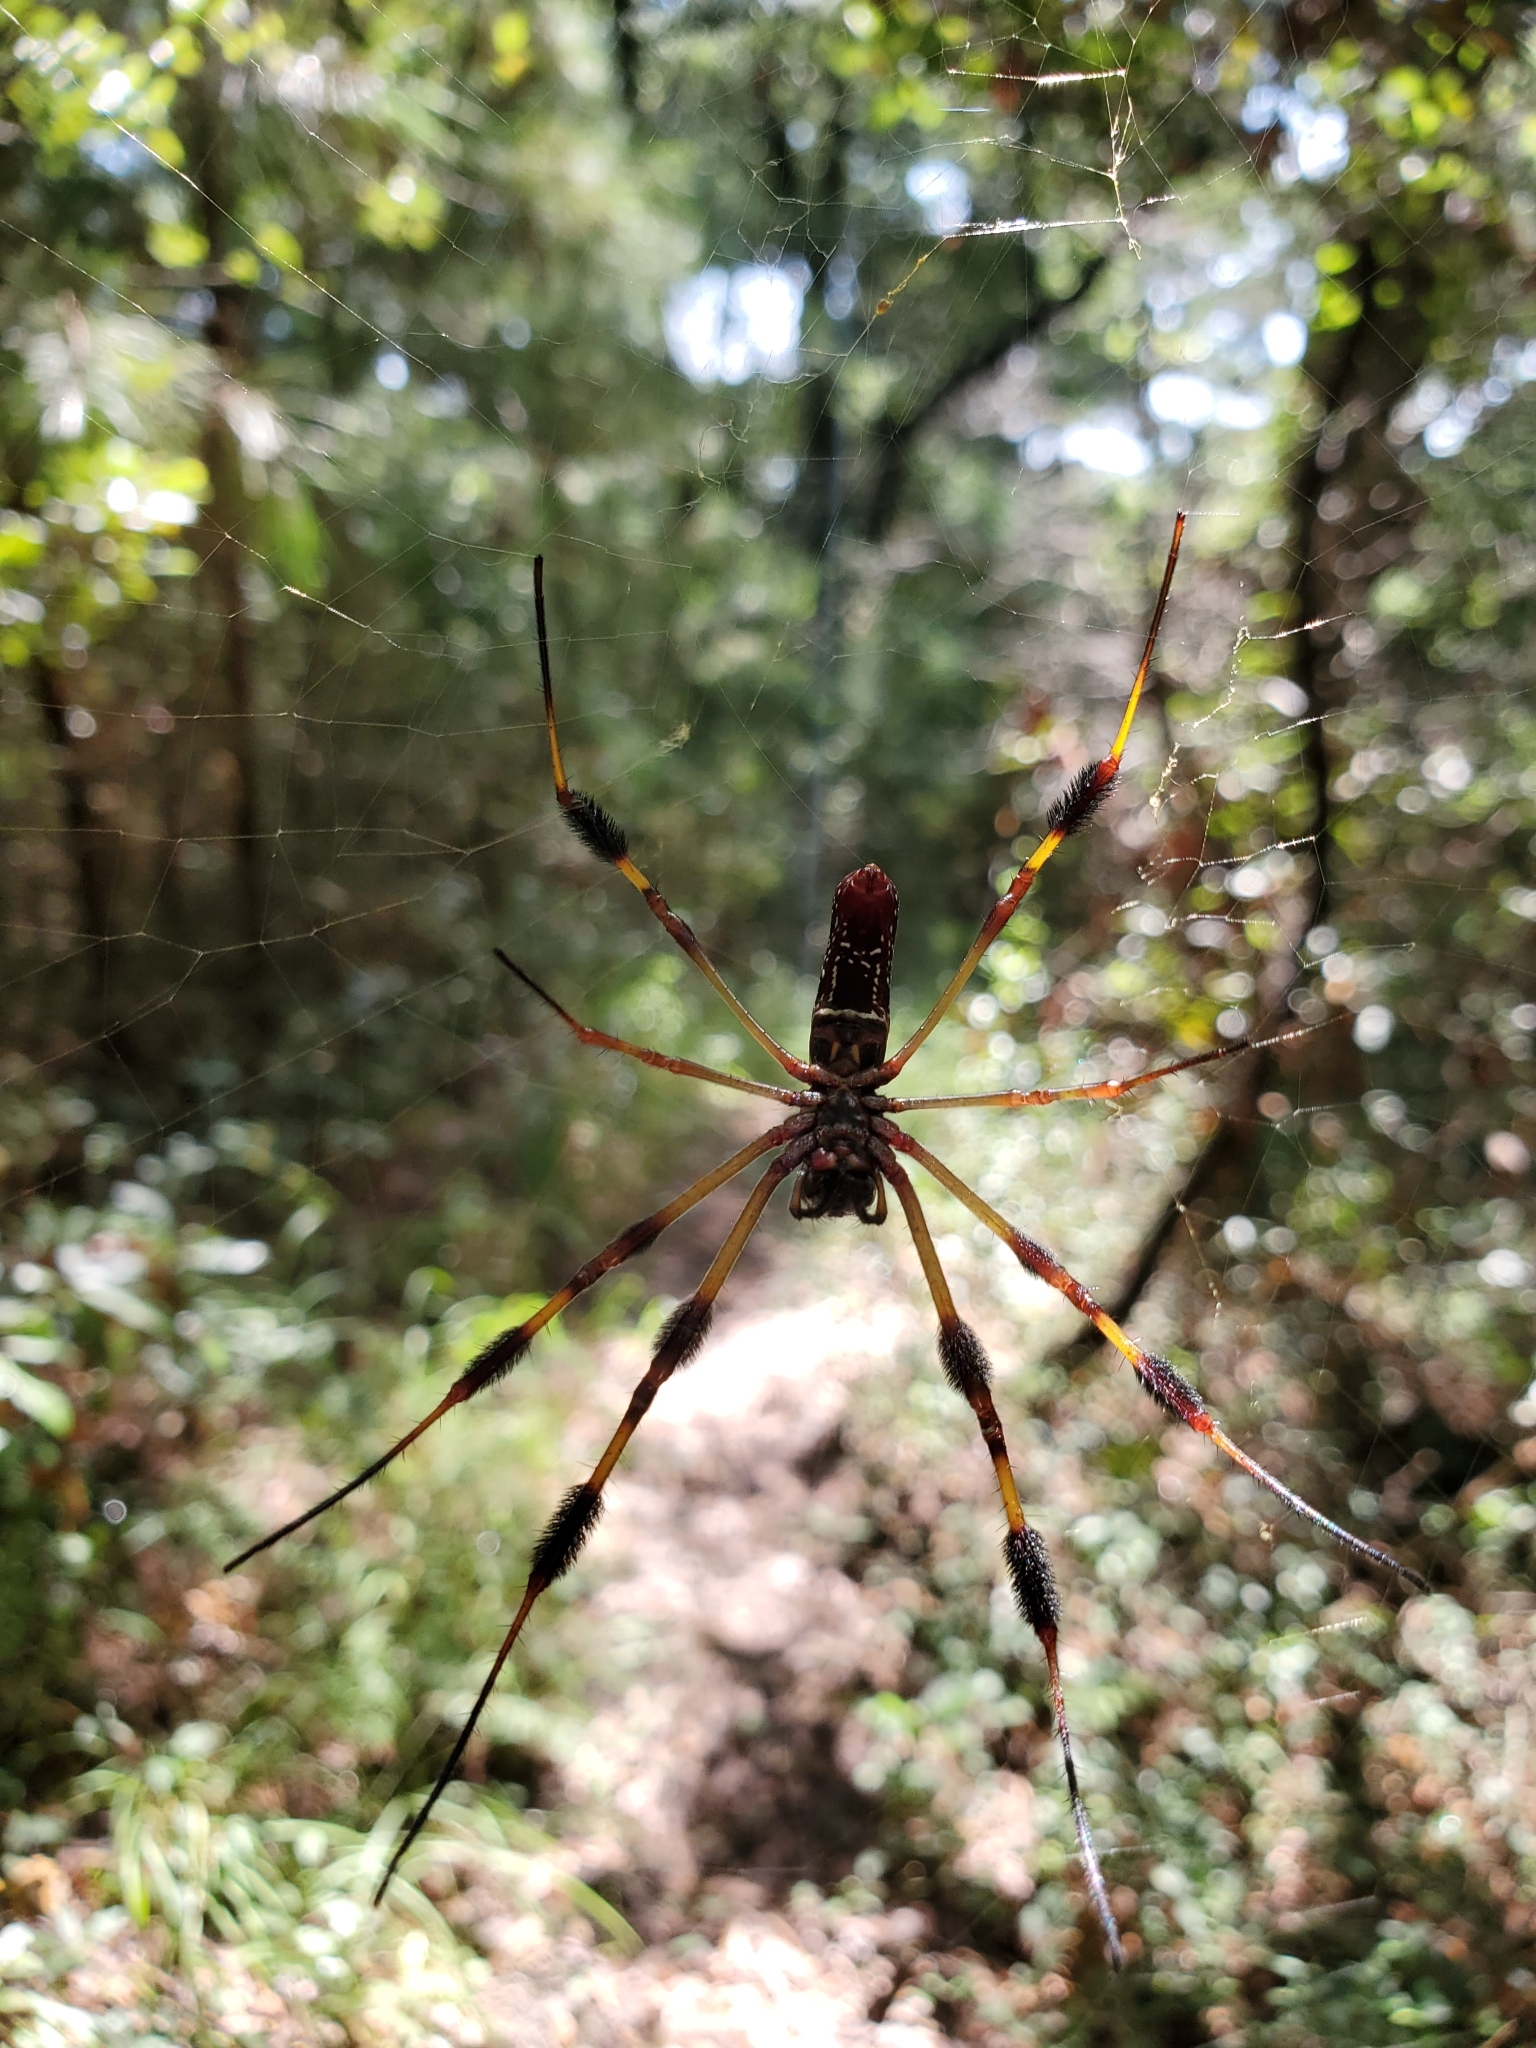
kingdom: Animalia
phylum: Arthropoda
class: Arachnida
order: Araneae
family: Araneidae
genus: Trichonephila
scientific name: Trichonephila clavipes
